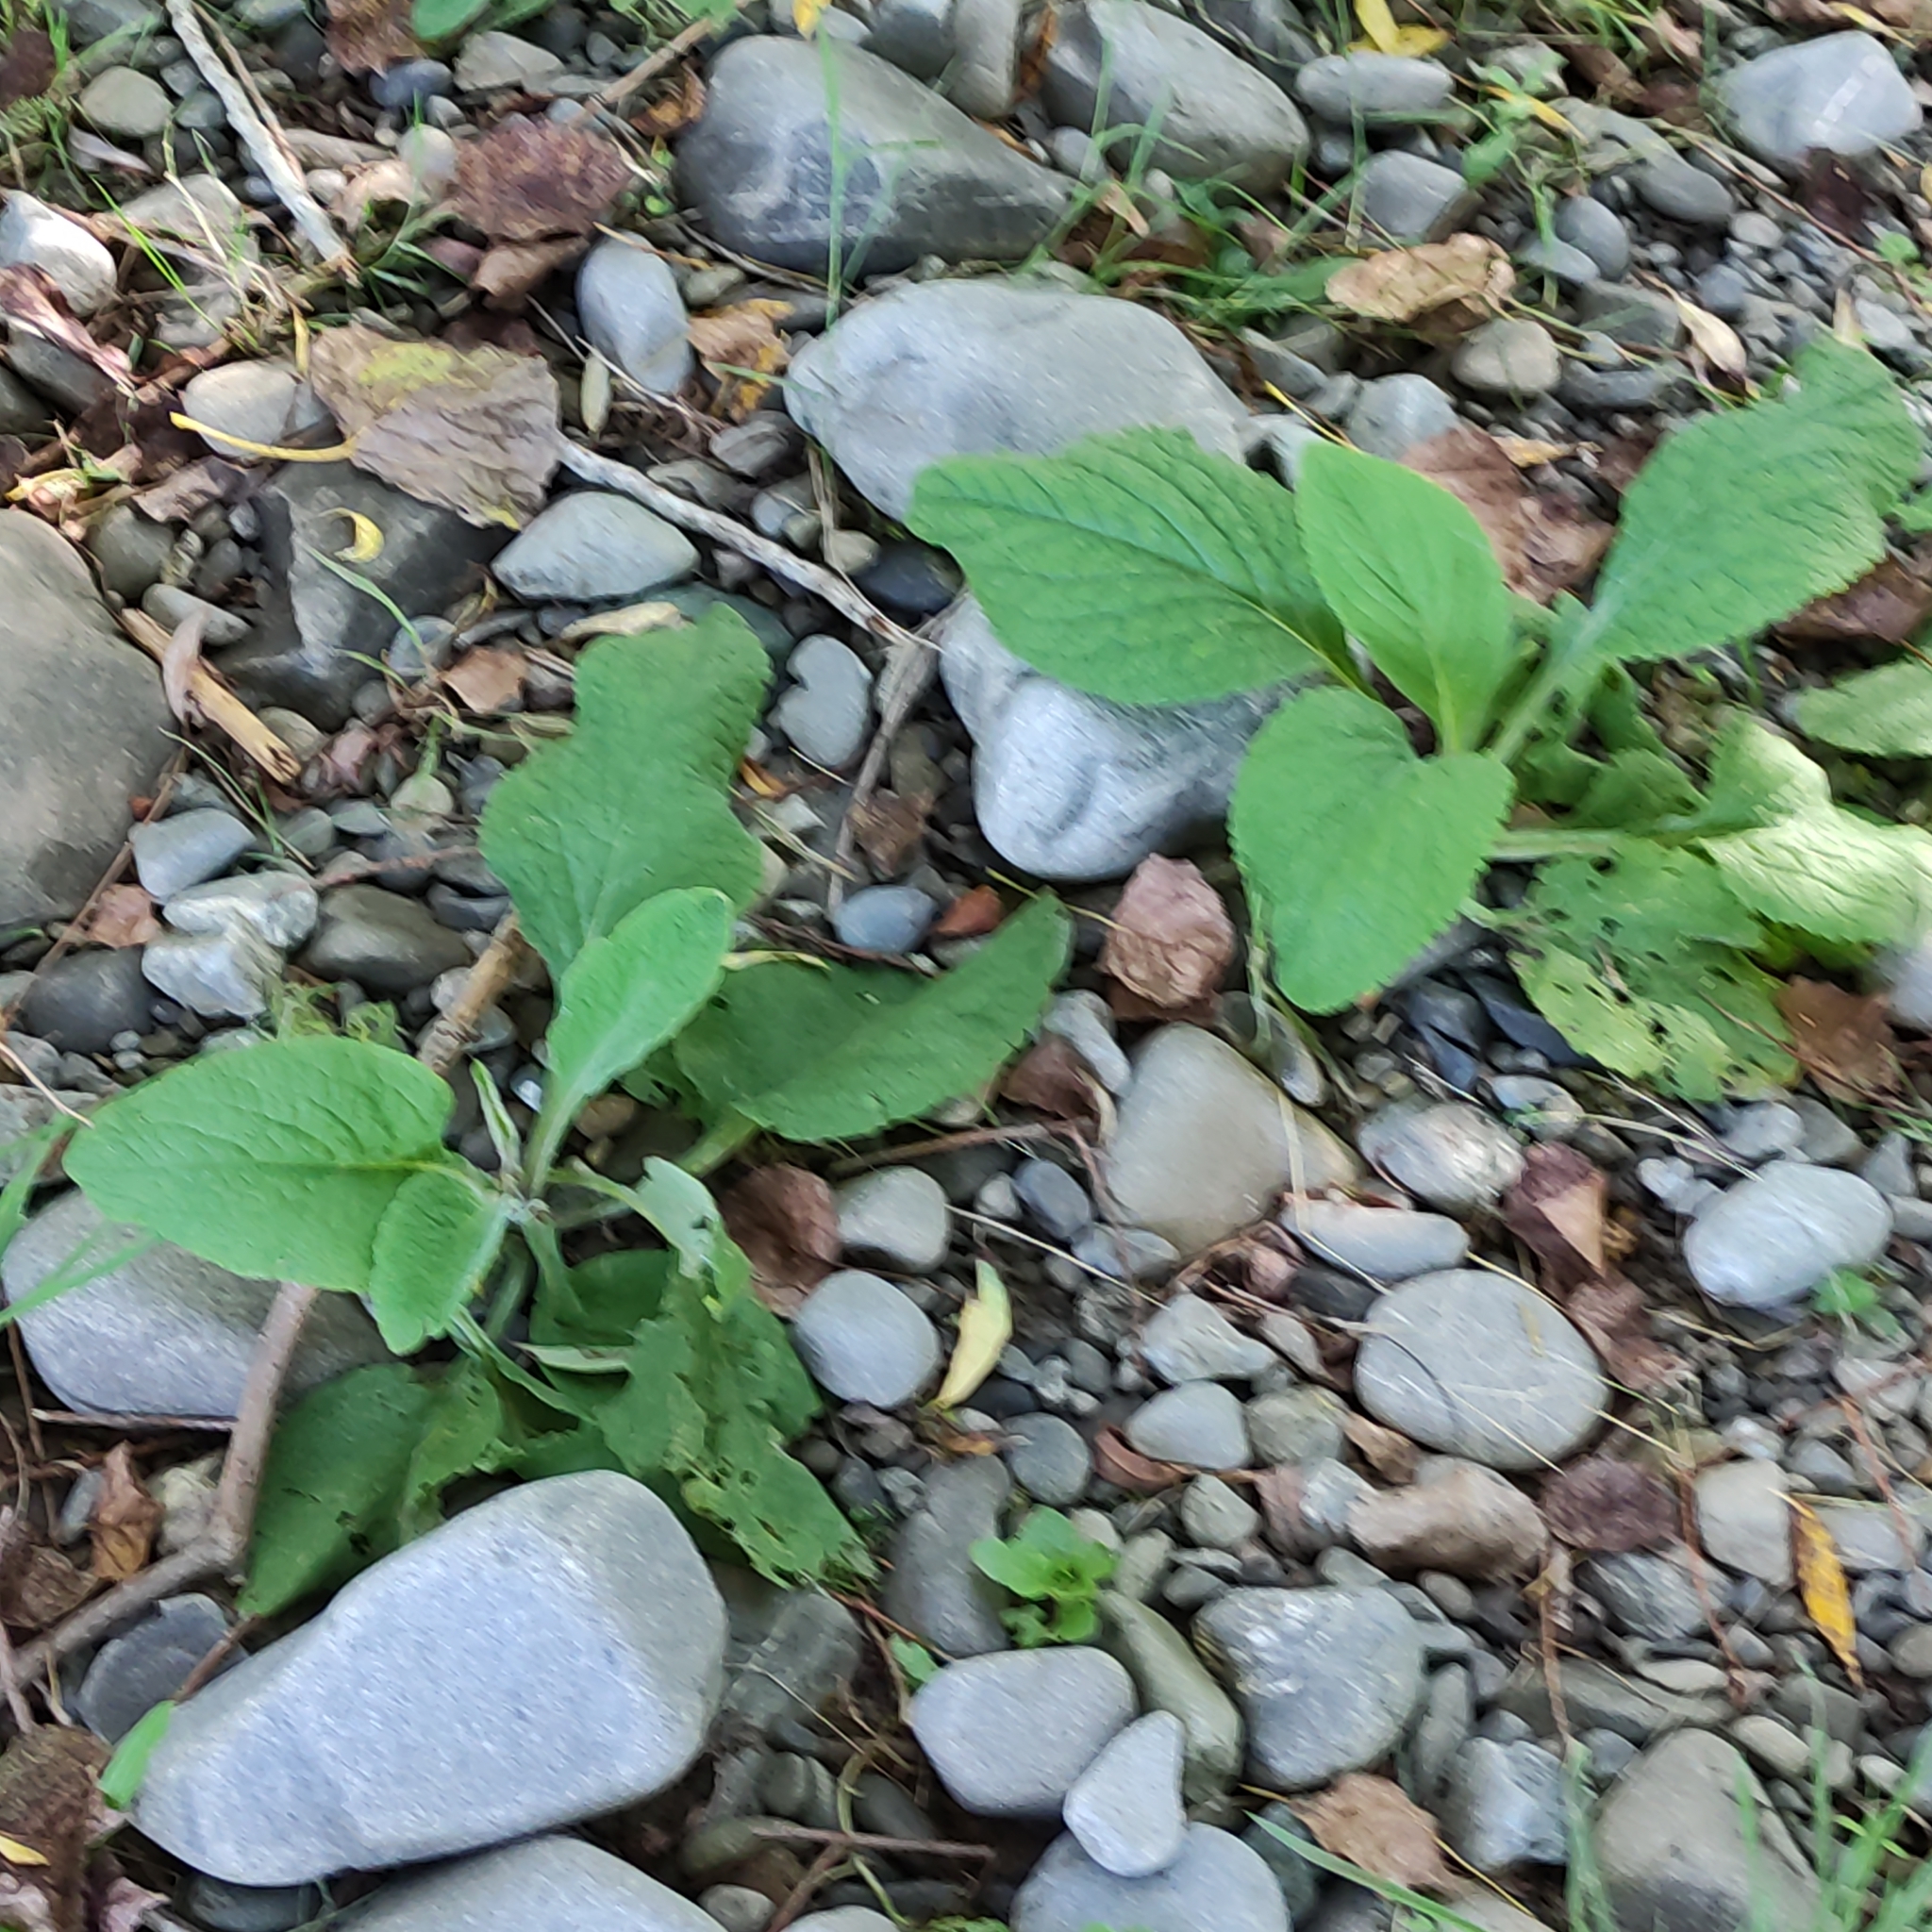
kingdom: Plantae
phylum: Tracheophyta
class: Magnoliopsida
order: Lamiales
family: Plantaginaceae
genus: Digitalis
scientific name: Digitalis purpurea
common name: Foxglove
